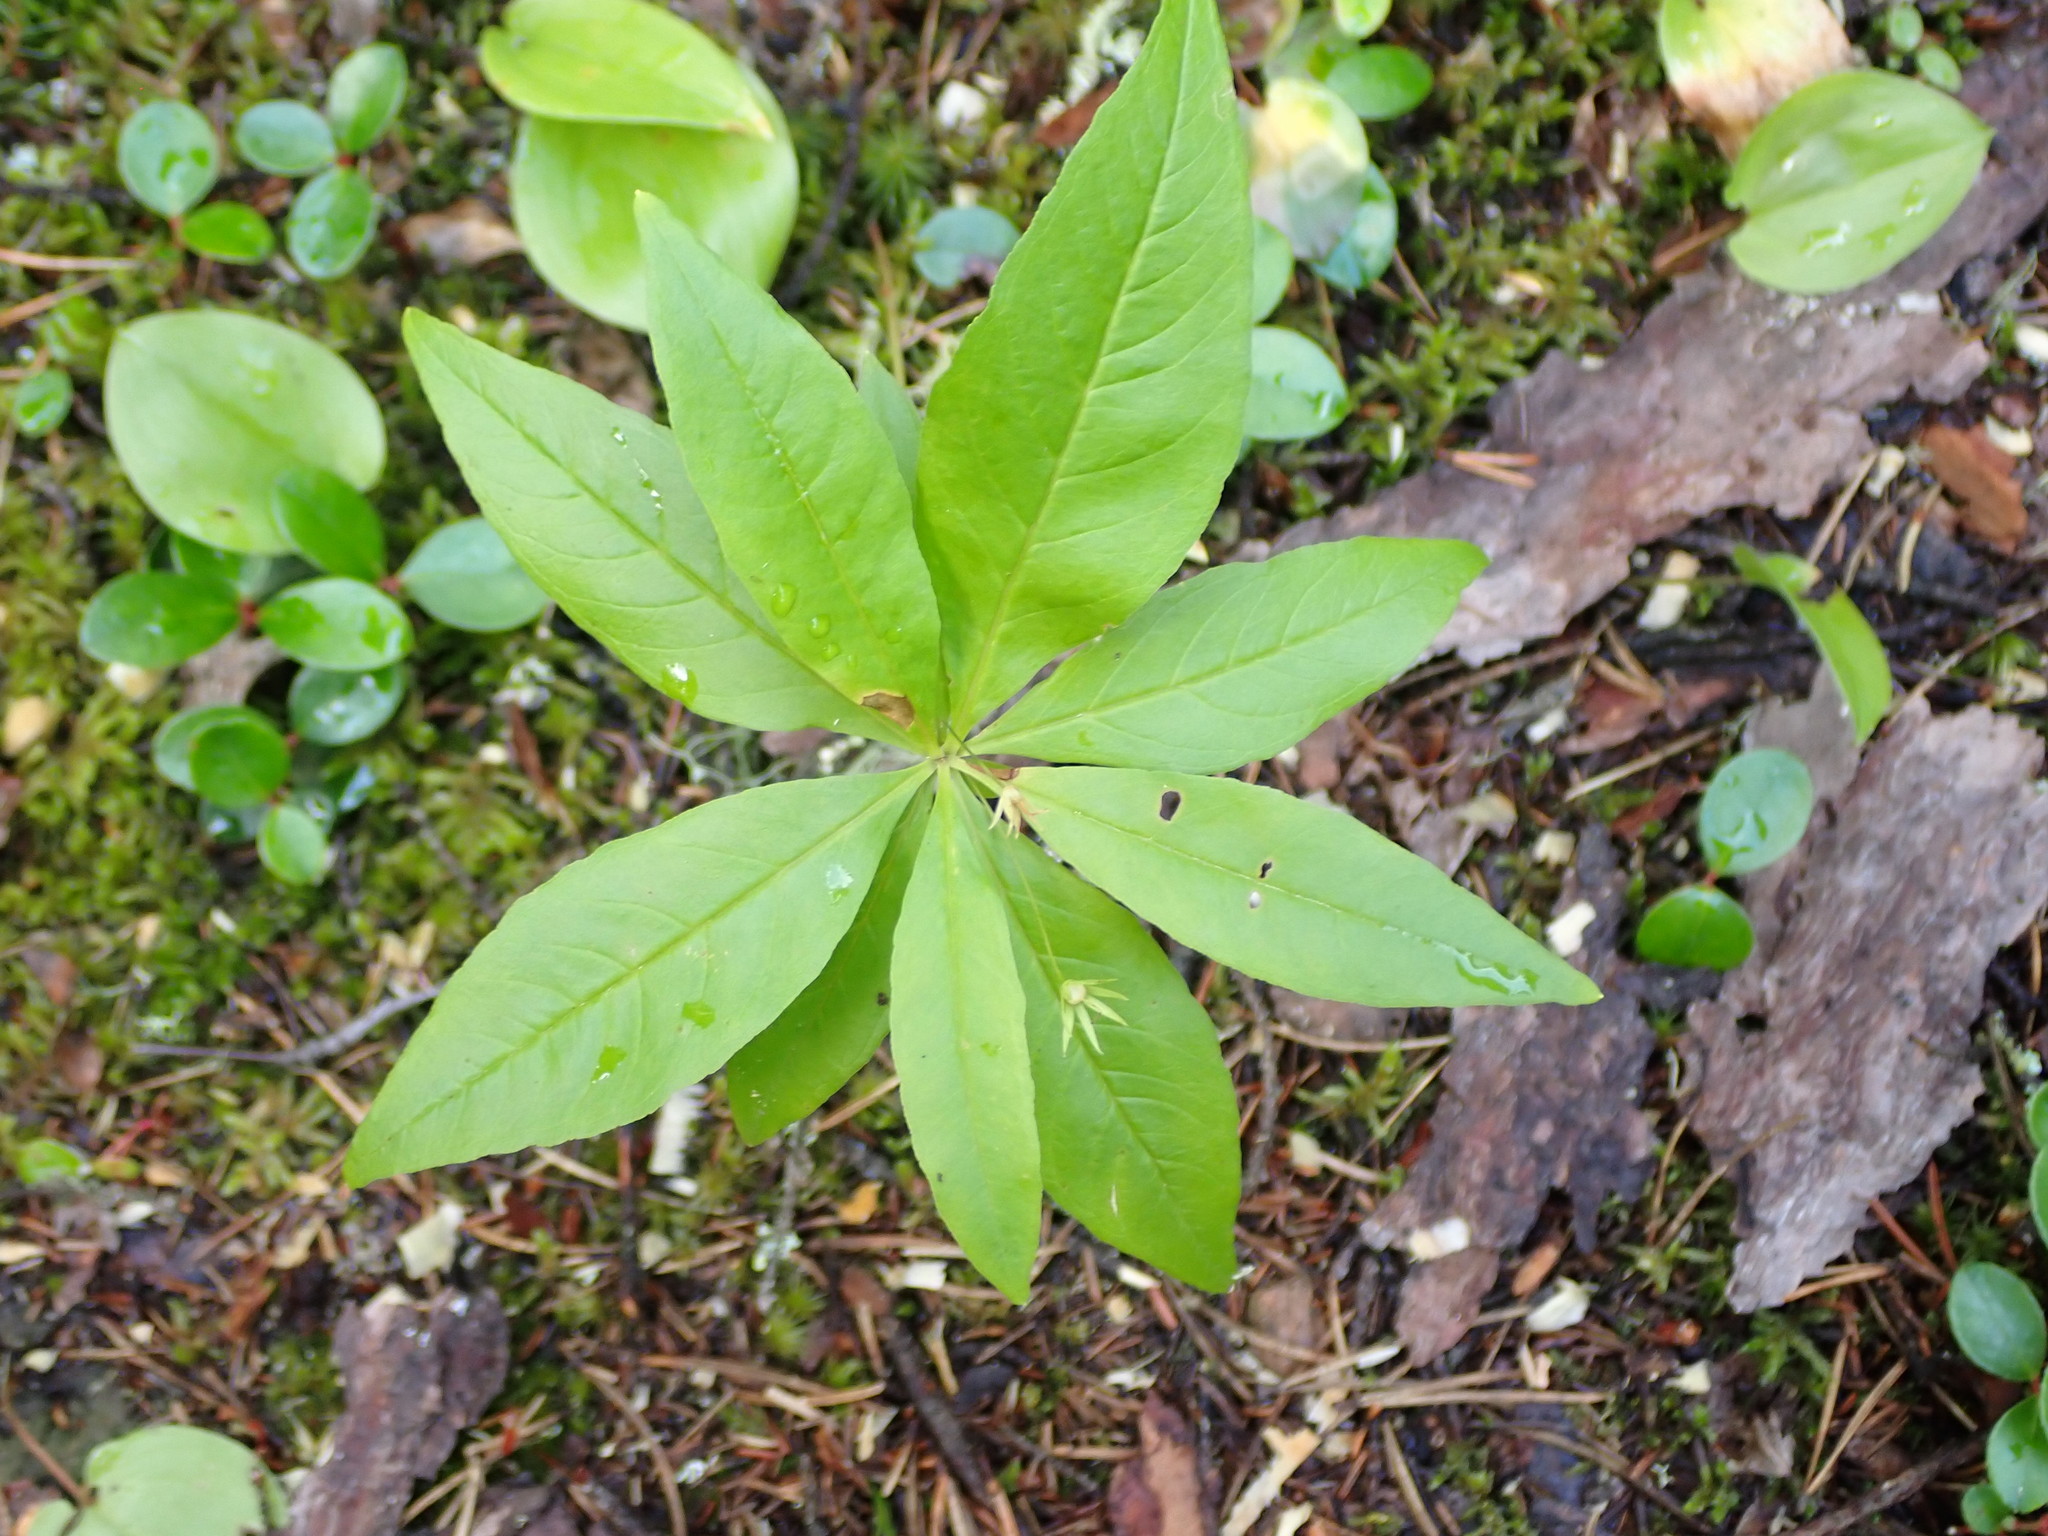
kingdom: Plantae
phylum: Tracheophyta
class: Magnoliopsida
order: Ericales
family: Primulaceae
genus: Lysimachia
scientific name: Lysimachia borealis
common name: American starflower
